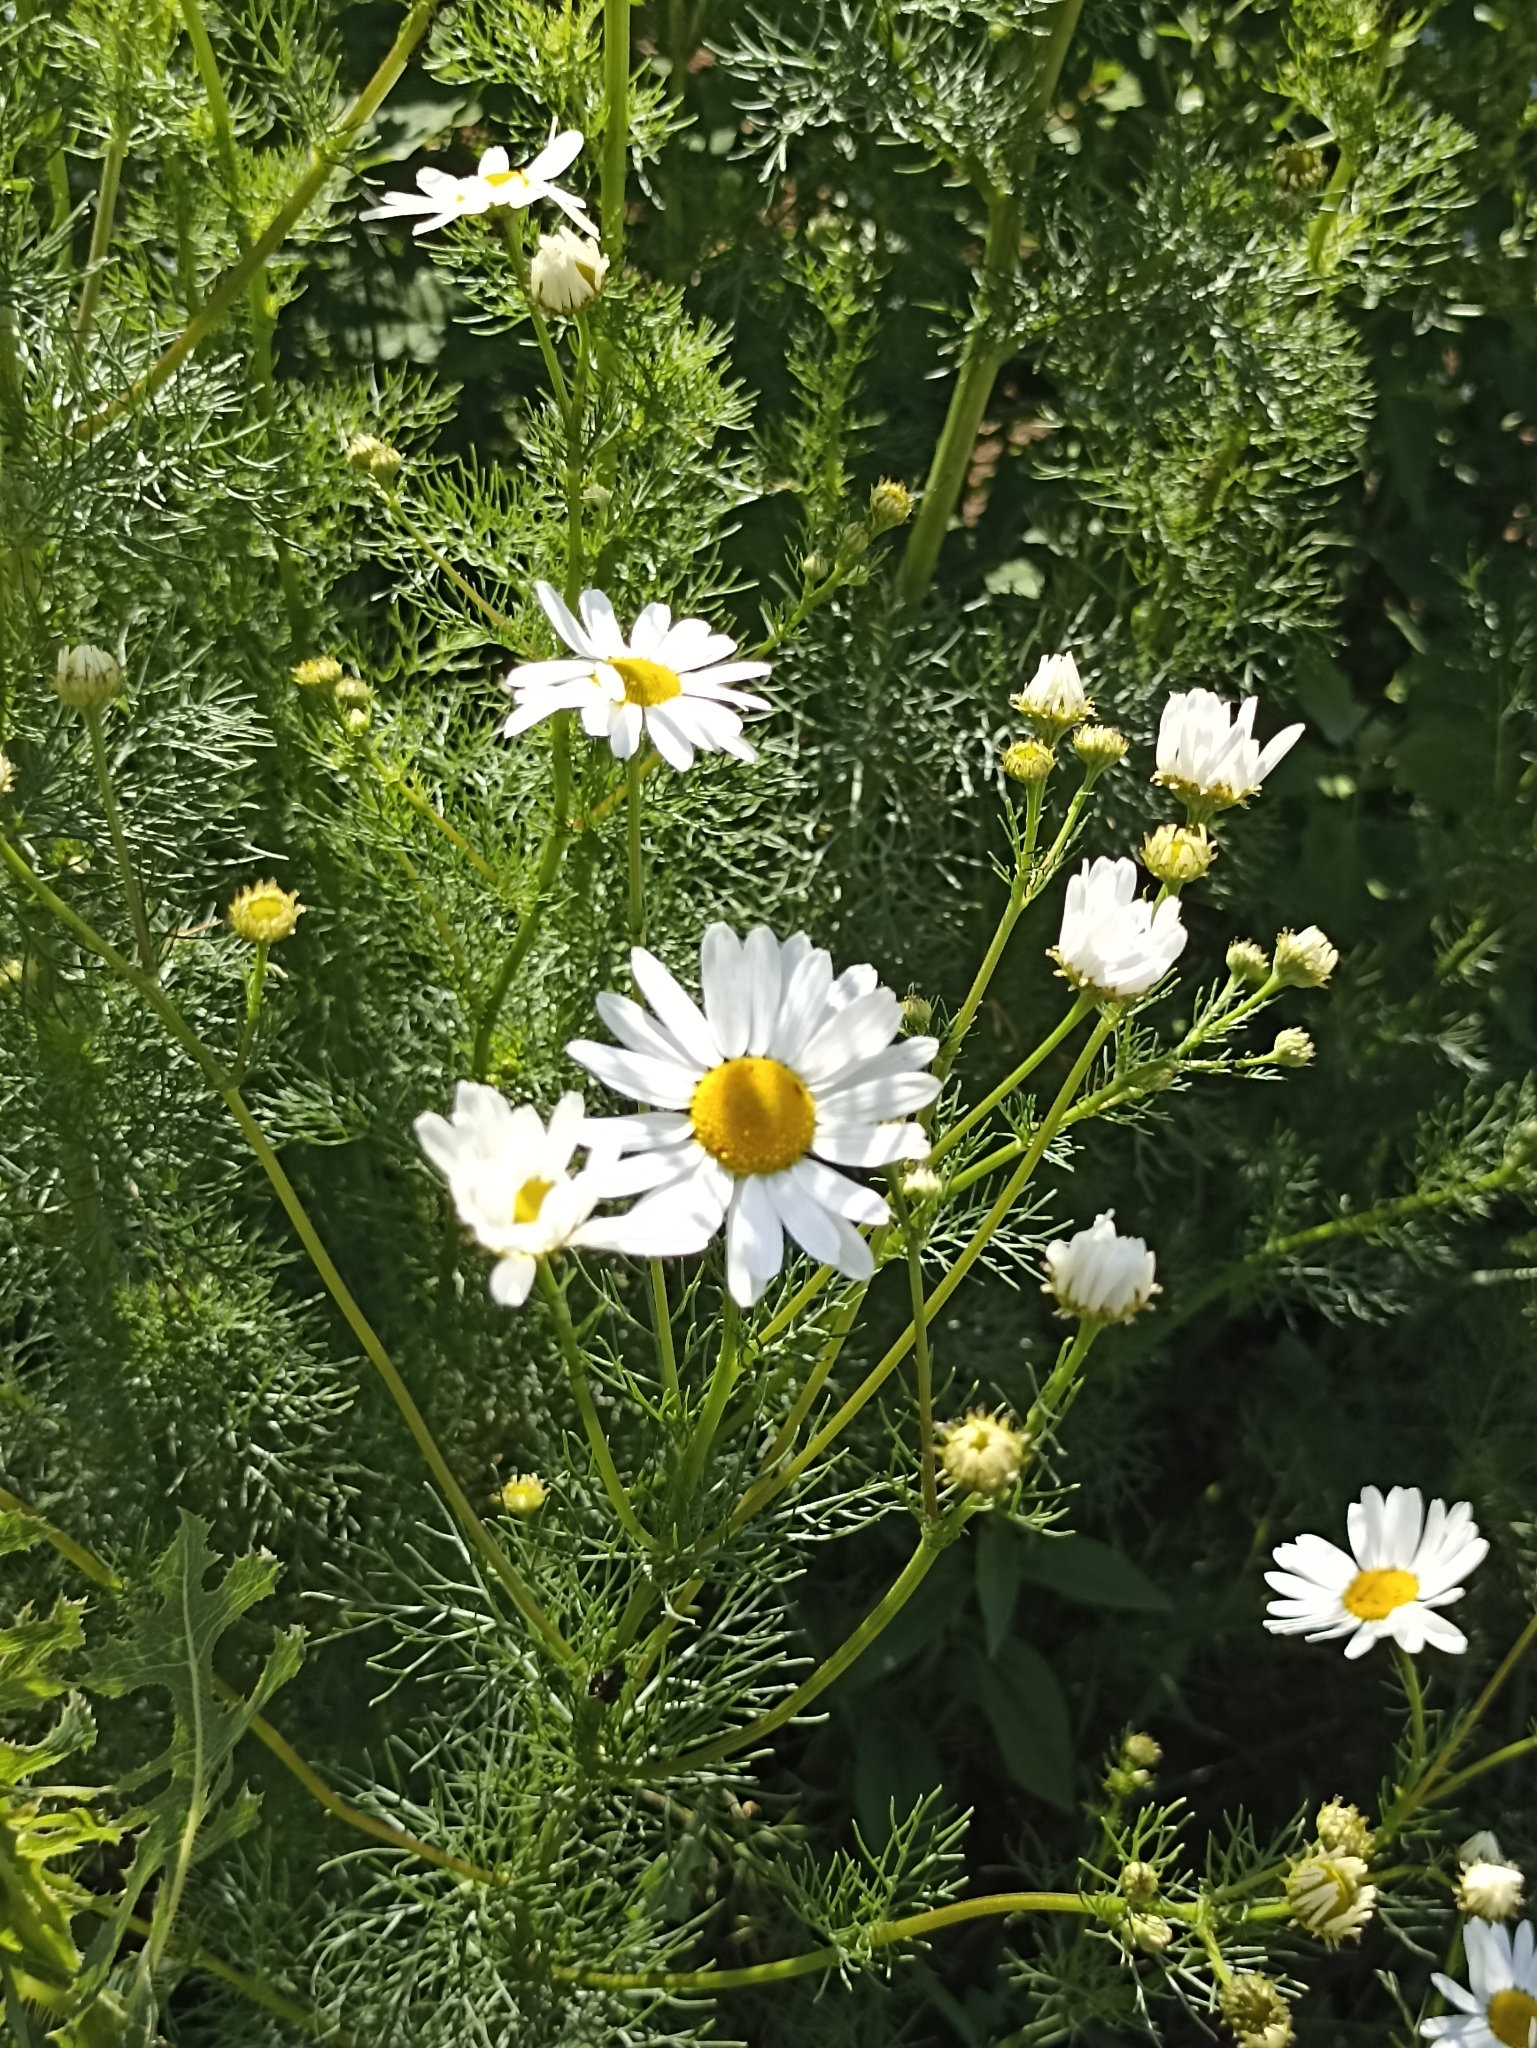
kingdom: Plantae
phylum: Tracheophyta
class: Magnoliopsida
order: Asterales
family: Asteraceae
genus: Tripleurospermum
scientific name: Tripleurospermum inodorum
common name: Scentless mayweed
